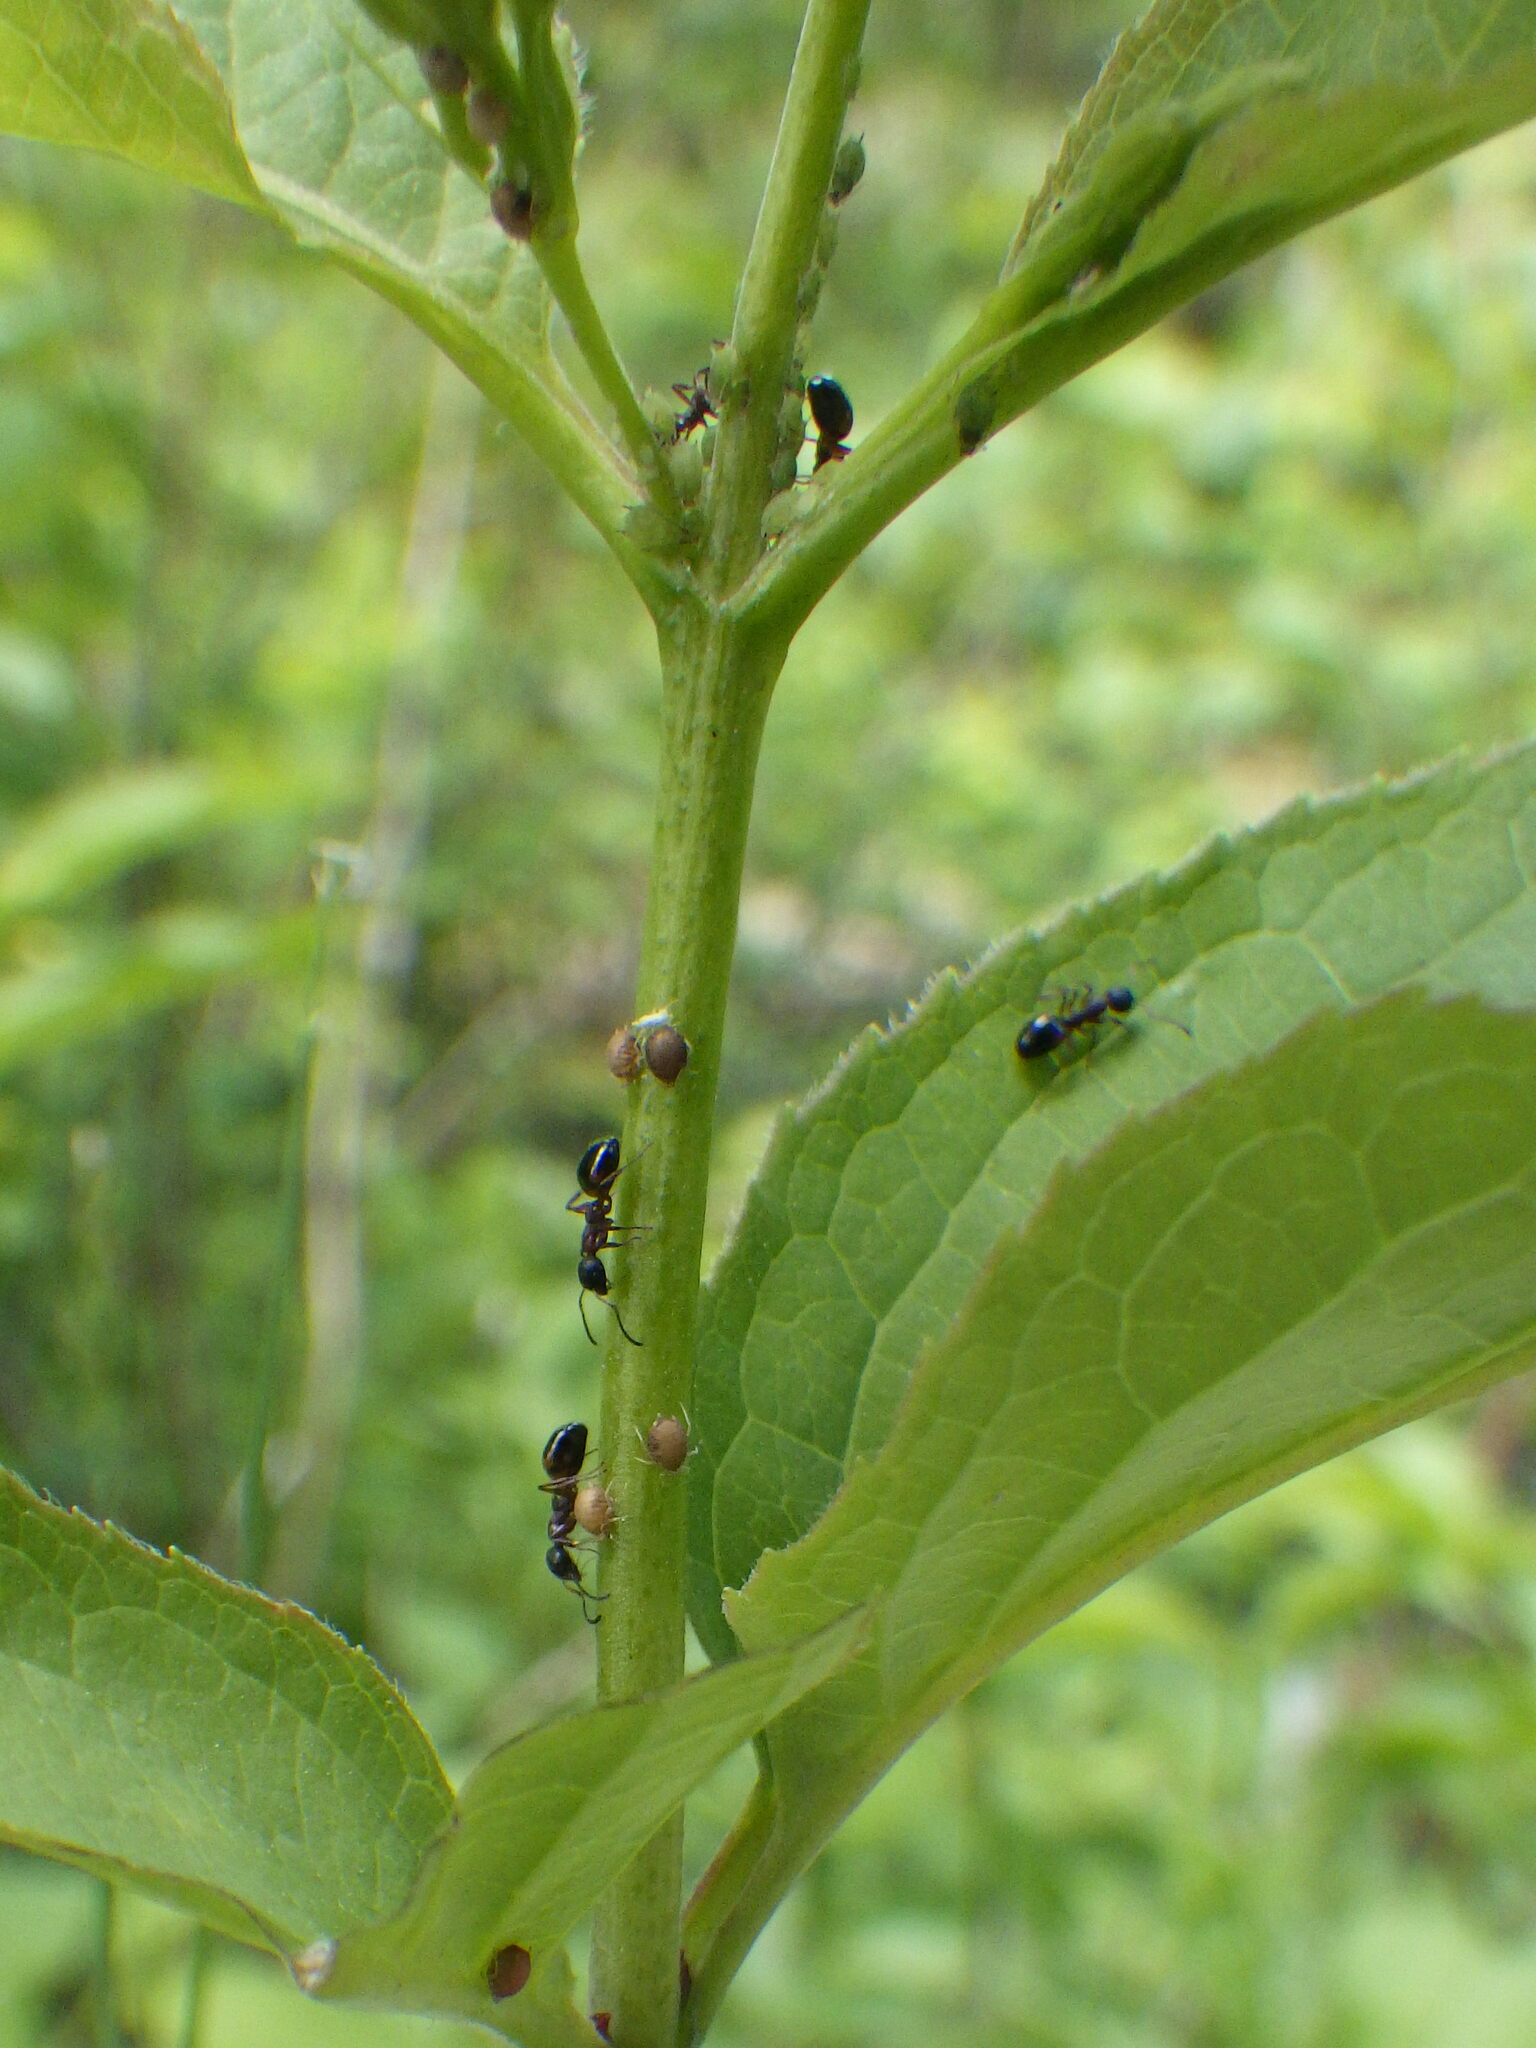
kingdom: Animalia
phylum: Arthropoda
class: Insecta
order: Hymenoptera
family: Formicidae
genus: Dolichoderus
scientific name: Dolichoderus plagiatus
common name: Mottled dolichoderus
